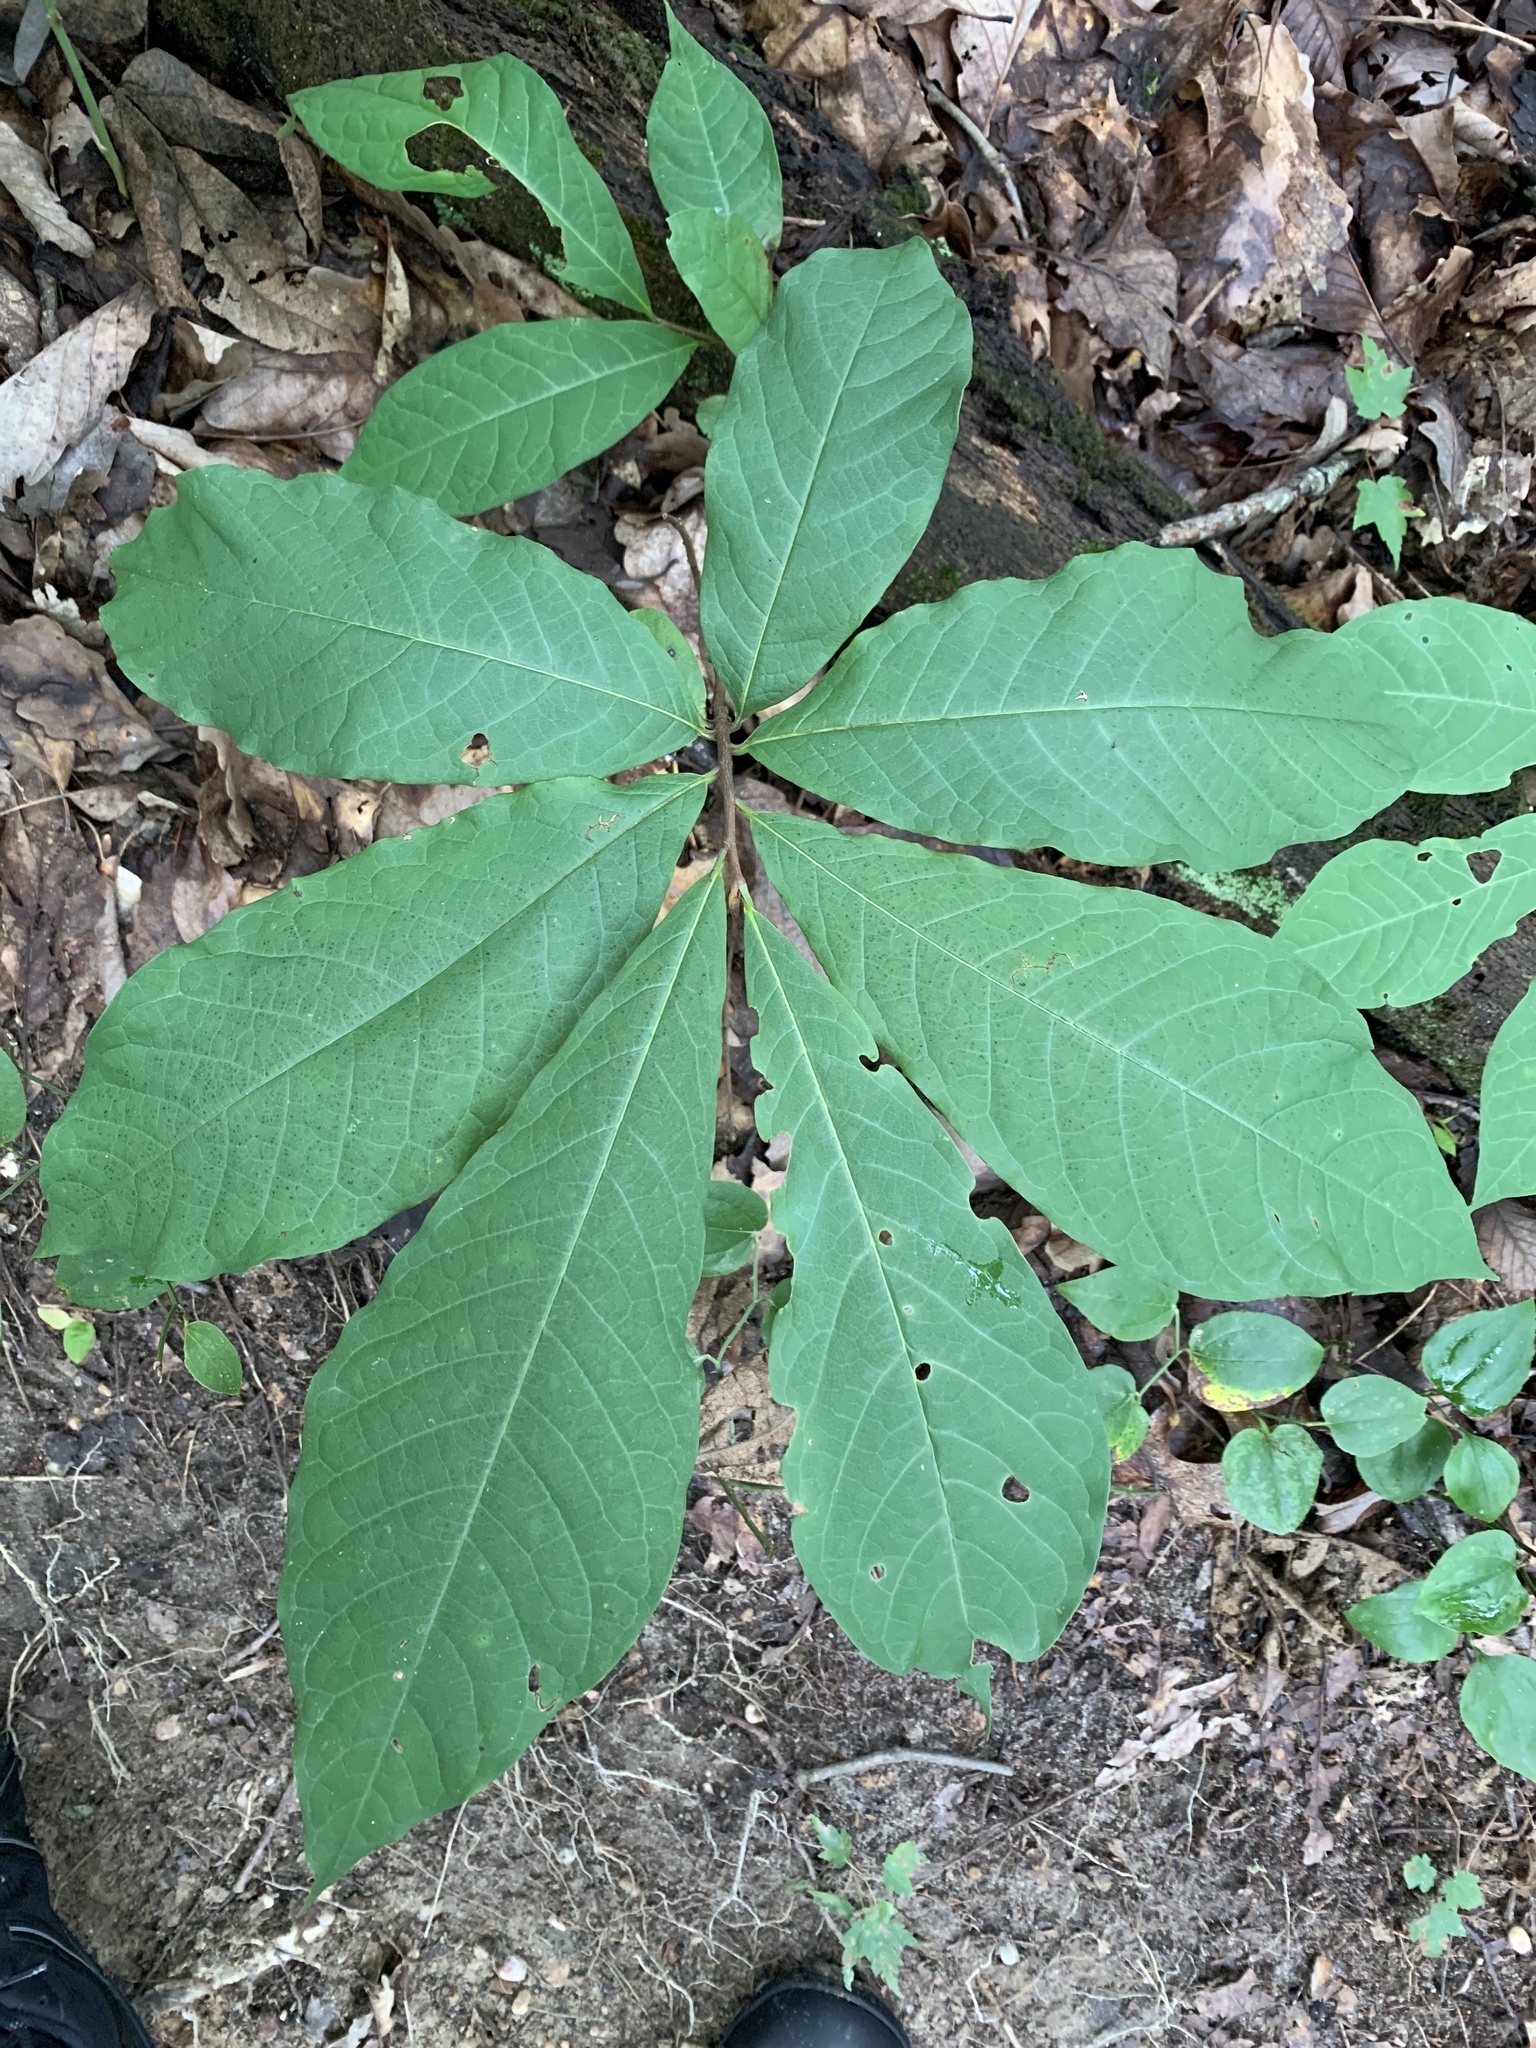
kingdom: Plantae
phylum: Tracheophyta
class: Magnoliopsida
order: Magnoliales
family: Annonaceae
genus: Asimina
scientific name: Asimina triloba
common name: Dog-banana
